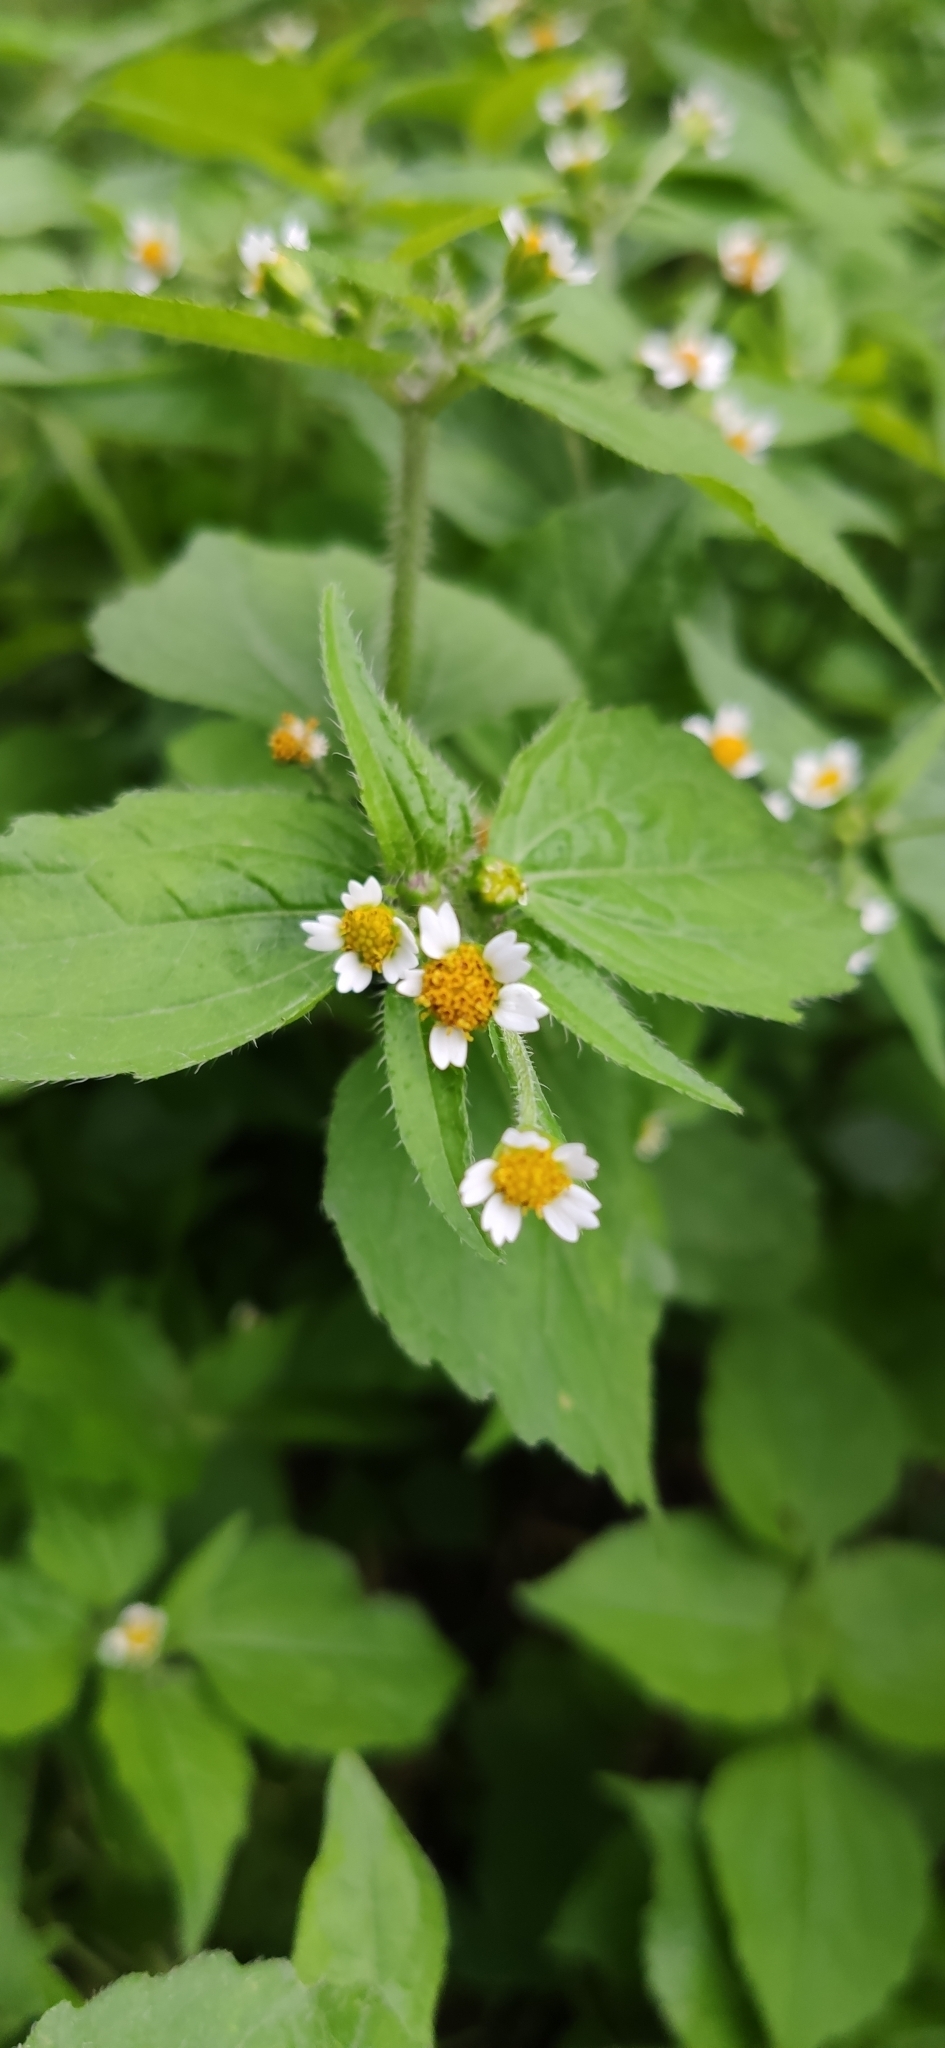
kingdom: Plantae
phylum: Tracheophyta
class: Magnoliopsida
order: Asterales
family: Asteraceae
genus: Galinsoga
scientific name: Galinsoga quadriradiata
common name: Shaggy soldier
